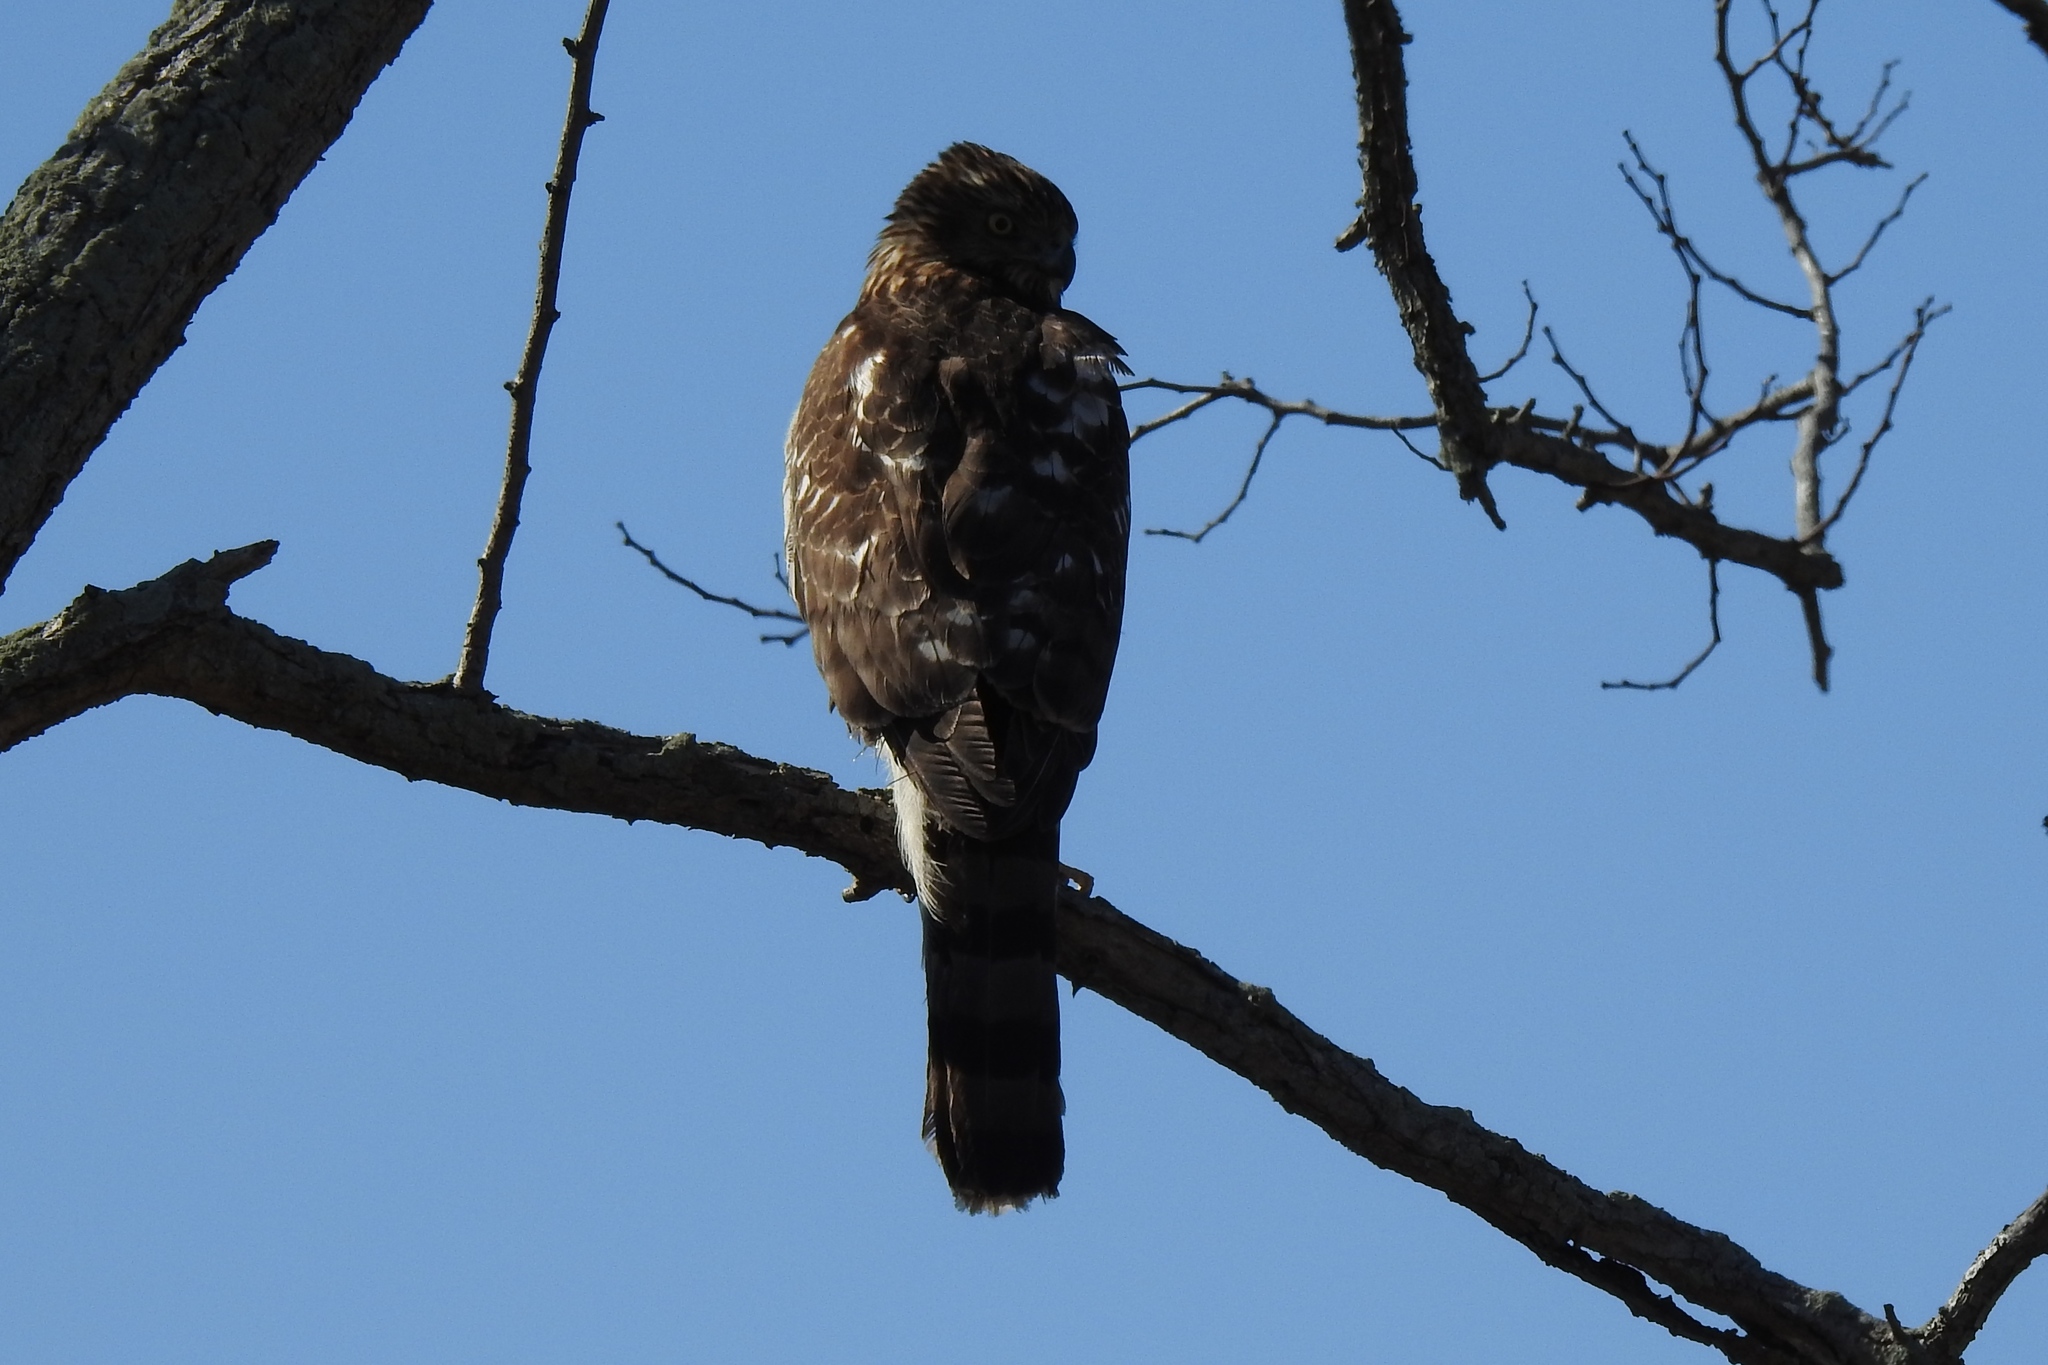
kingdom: Animalia
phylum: Chordata
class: Aves
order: Accipitriformes
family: Accipitridae
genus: Accipiter
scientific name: Accipiter cooperii
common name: Cooper's hawk
